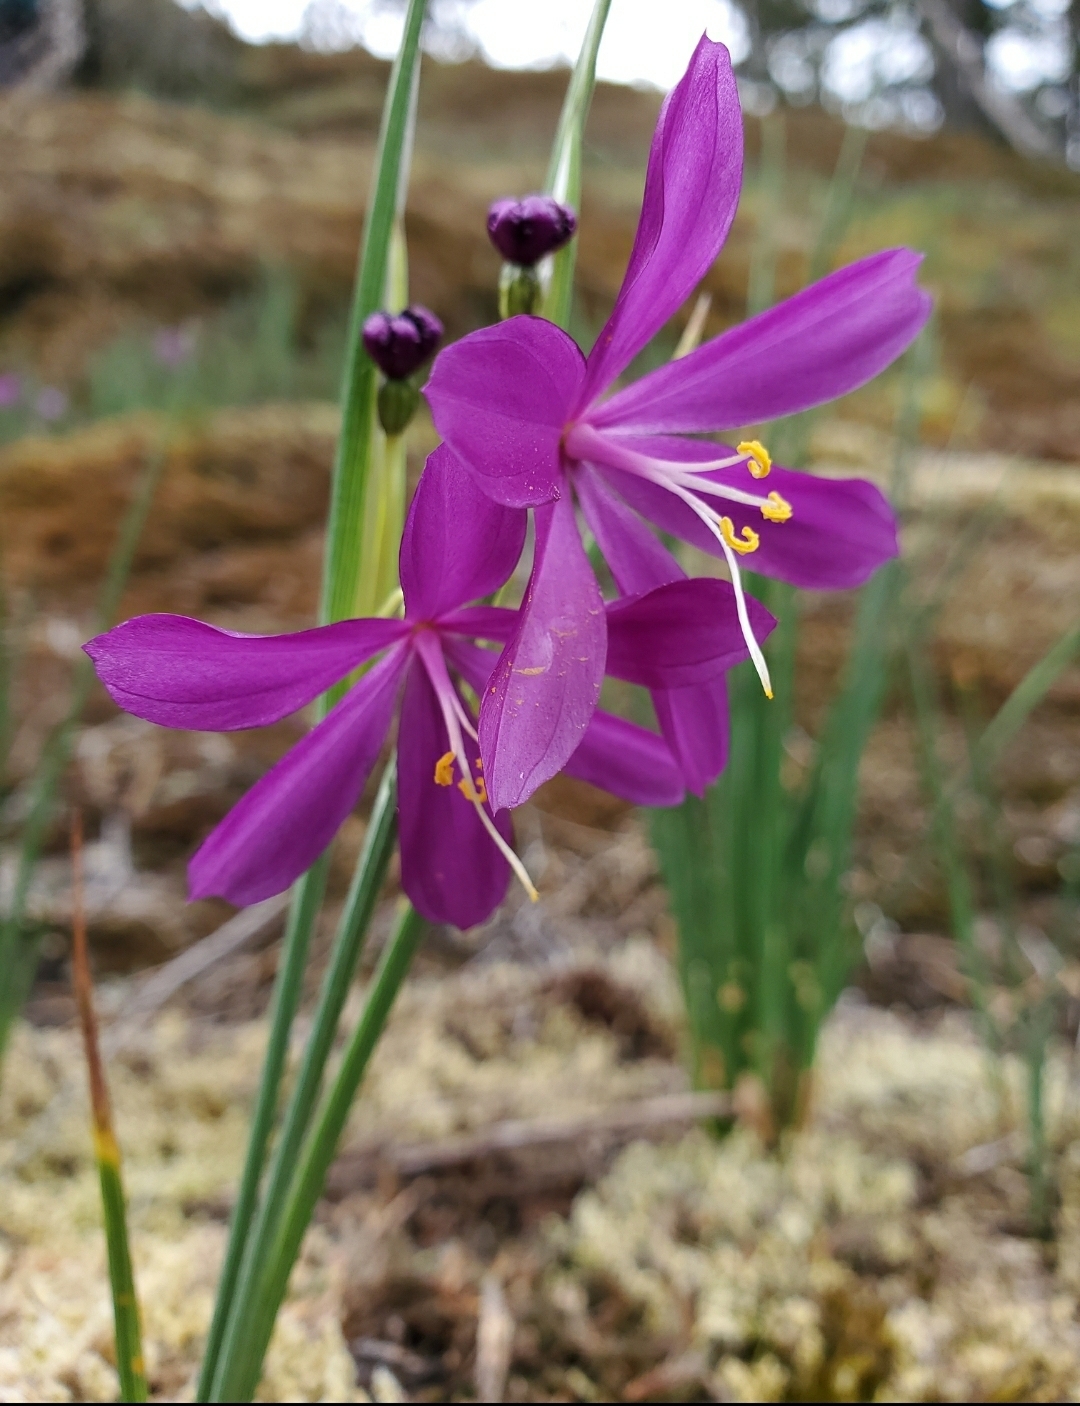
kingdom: Plantae
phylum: Tracheophyta
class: Liliopsida
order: Asparagales
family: Iridaceae
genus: Olsynium
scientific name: Olsynium douglasii
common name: Douglas' grasswidow
